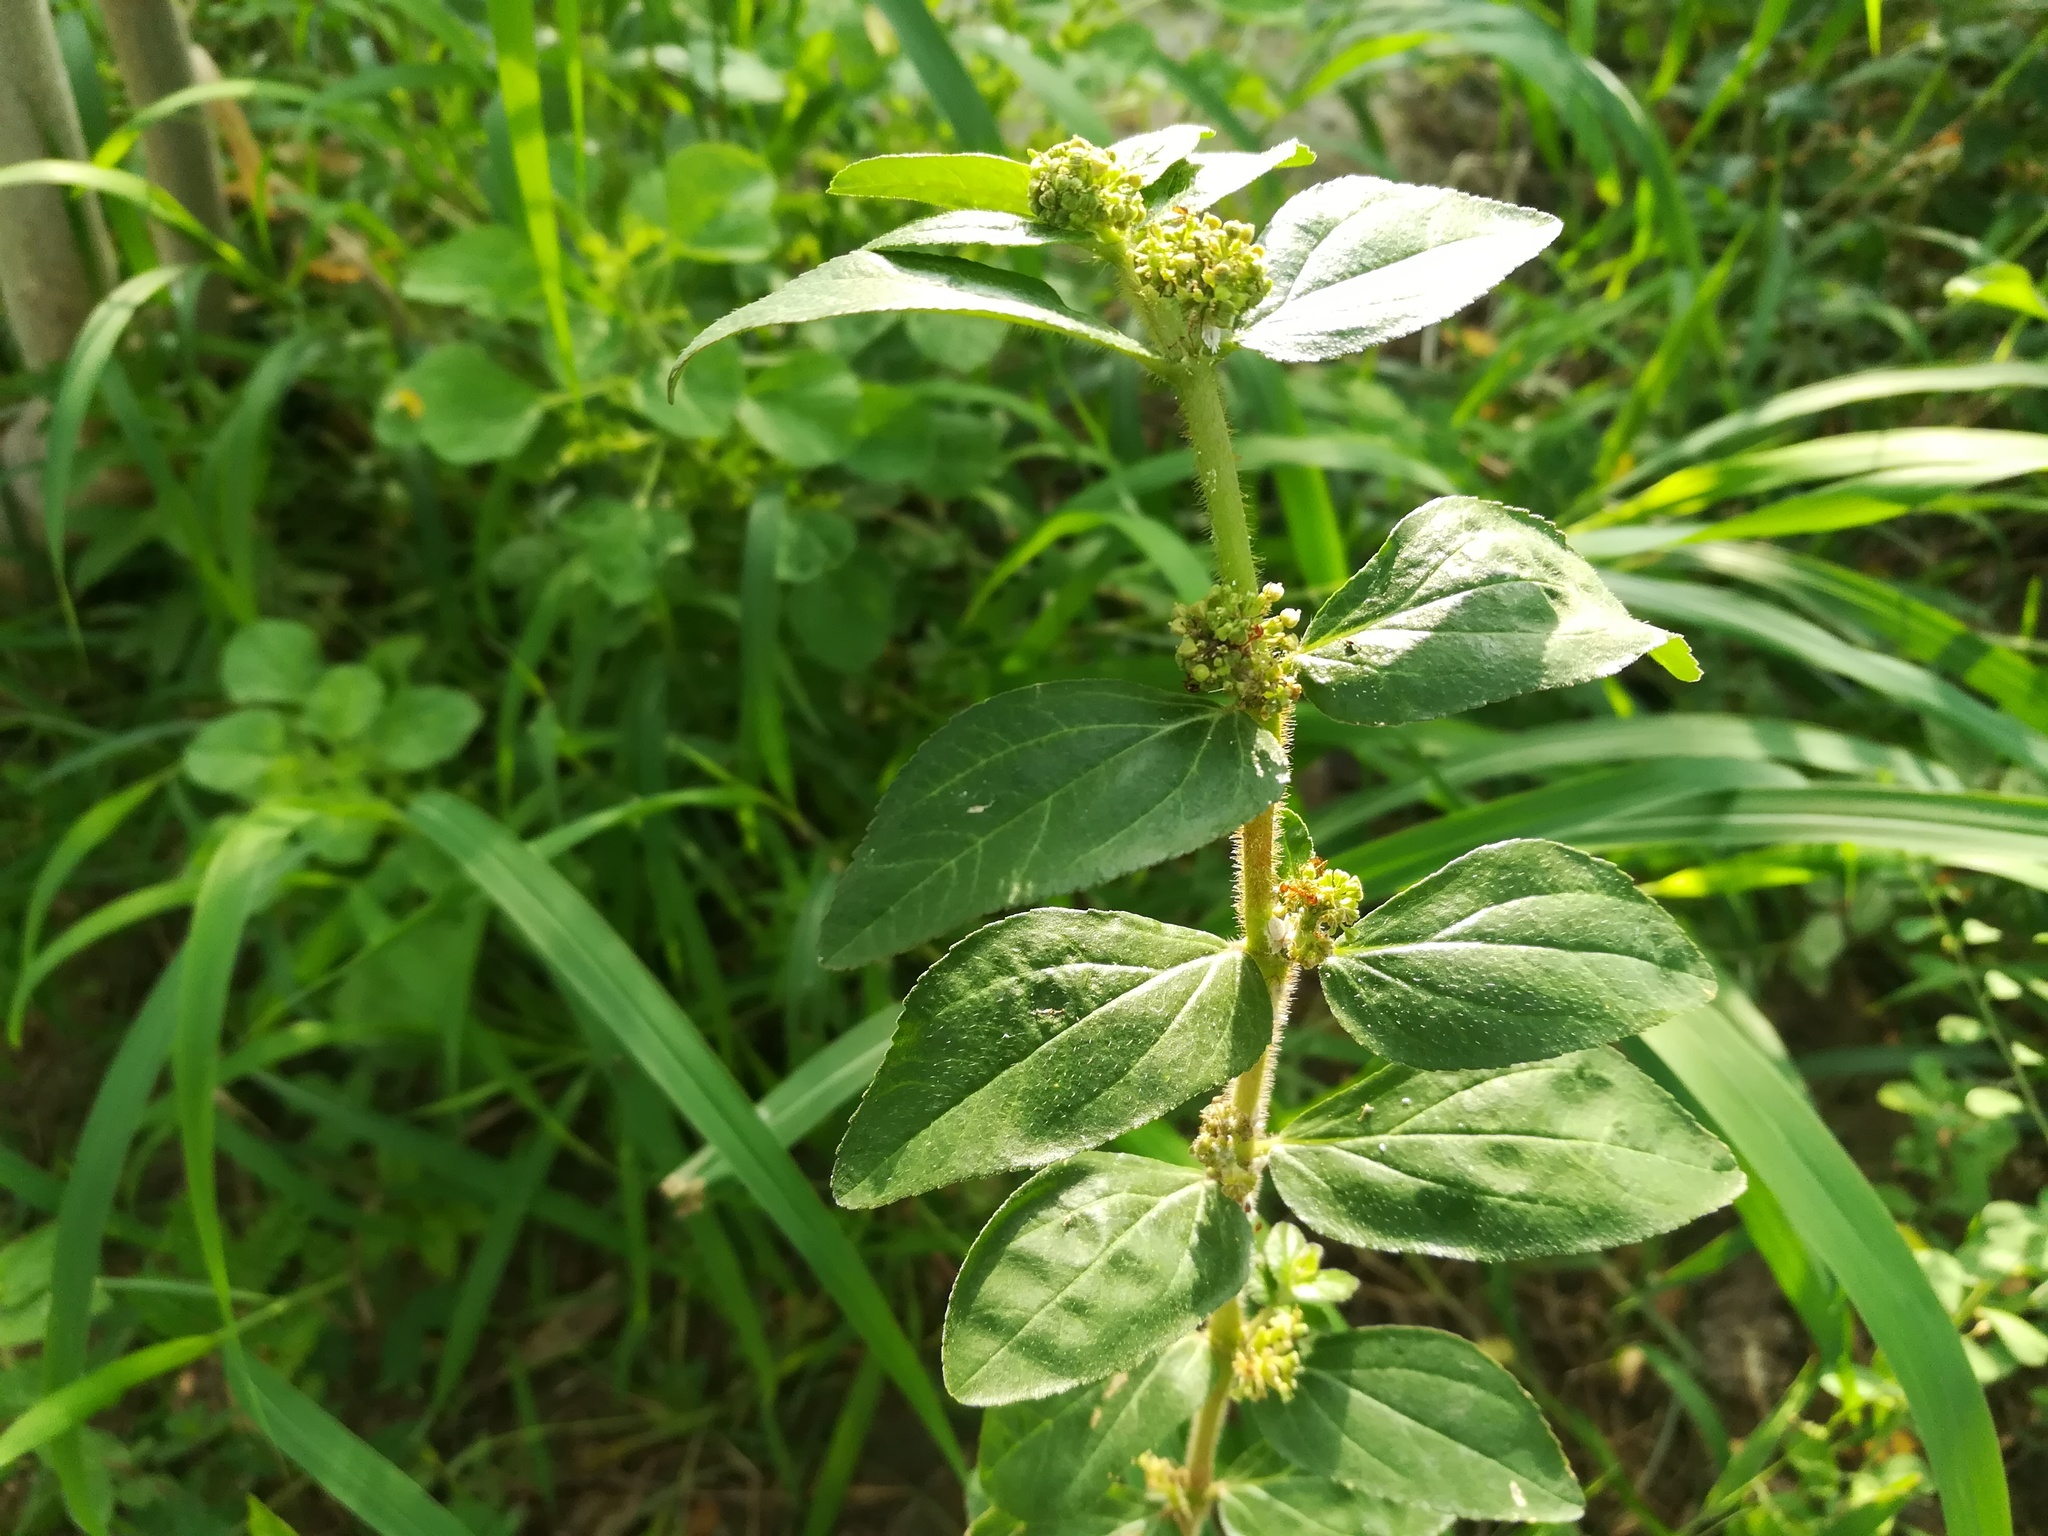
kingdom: Plantae
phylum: Tracheophyta
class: Magnoliopsida
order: Malpighiales
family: Euphorbiaceae
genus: Euphorbia
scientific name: Euphorbia hirta
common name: Pillpod sandmat
